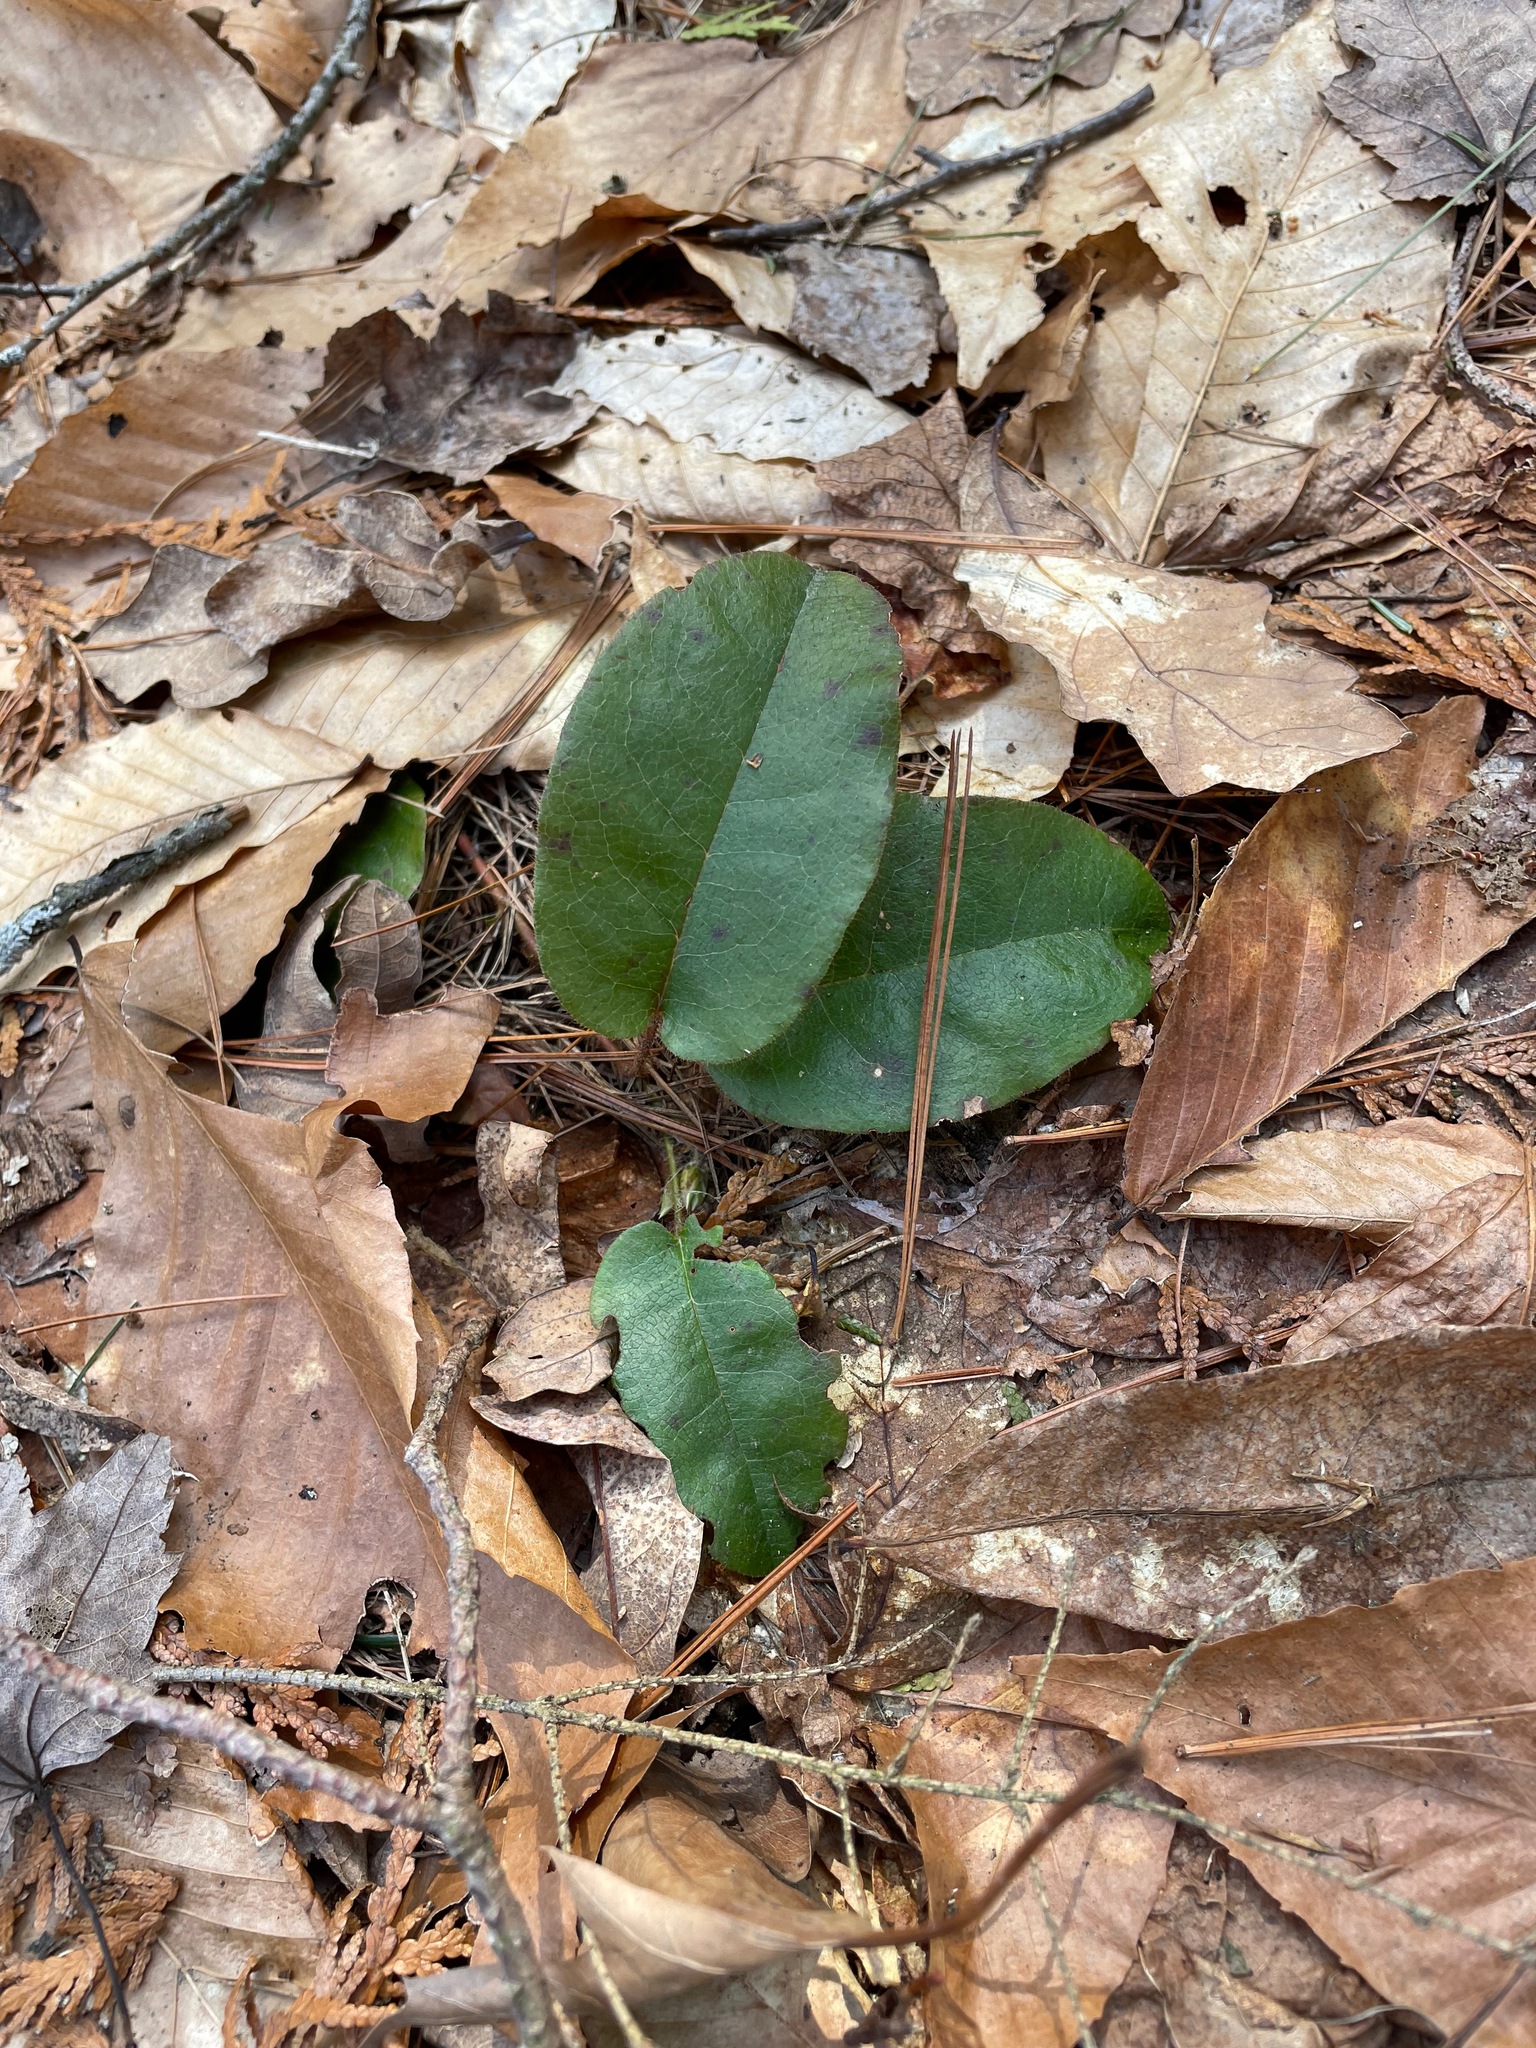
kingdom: Plantae
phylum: Tracheophyta
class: Magnoliopsida
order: Ericales
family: Ericaceae
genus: Epigaea
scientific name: Epigaea repens
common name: Gravelroot
